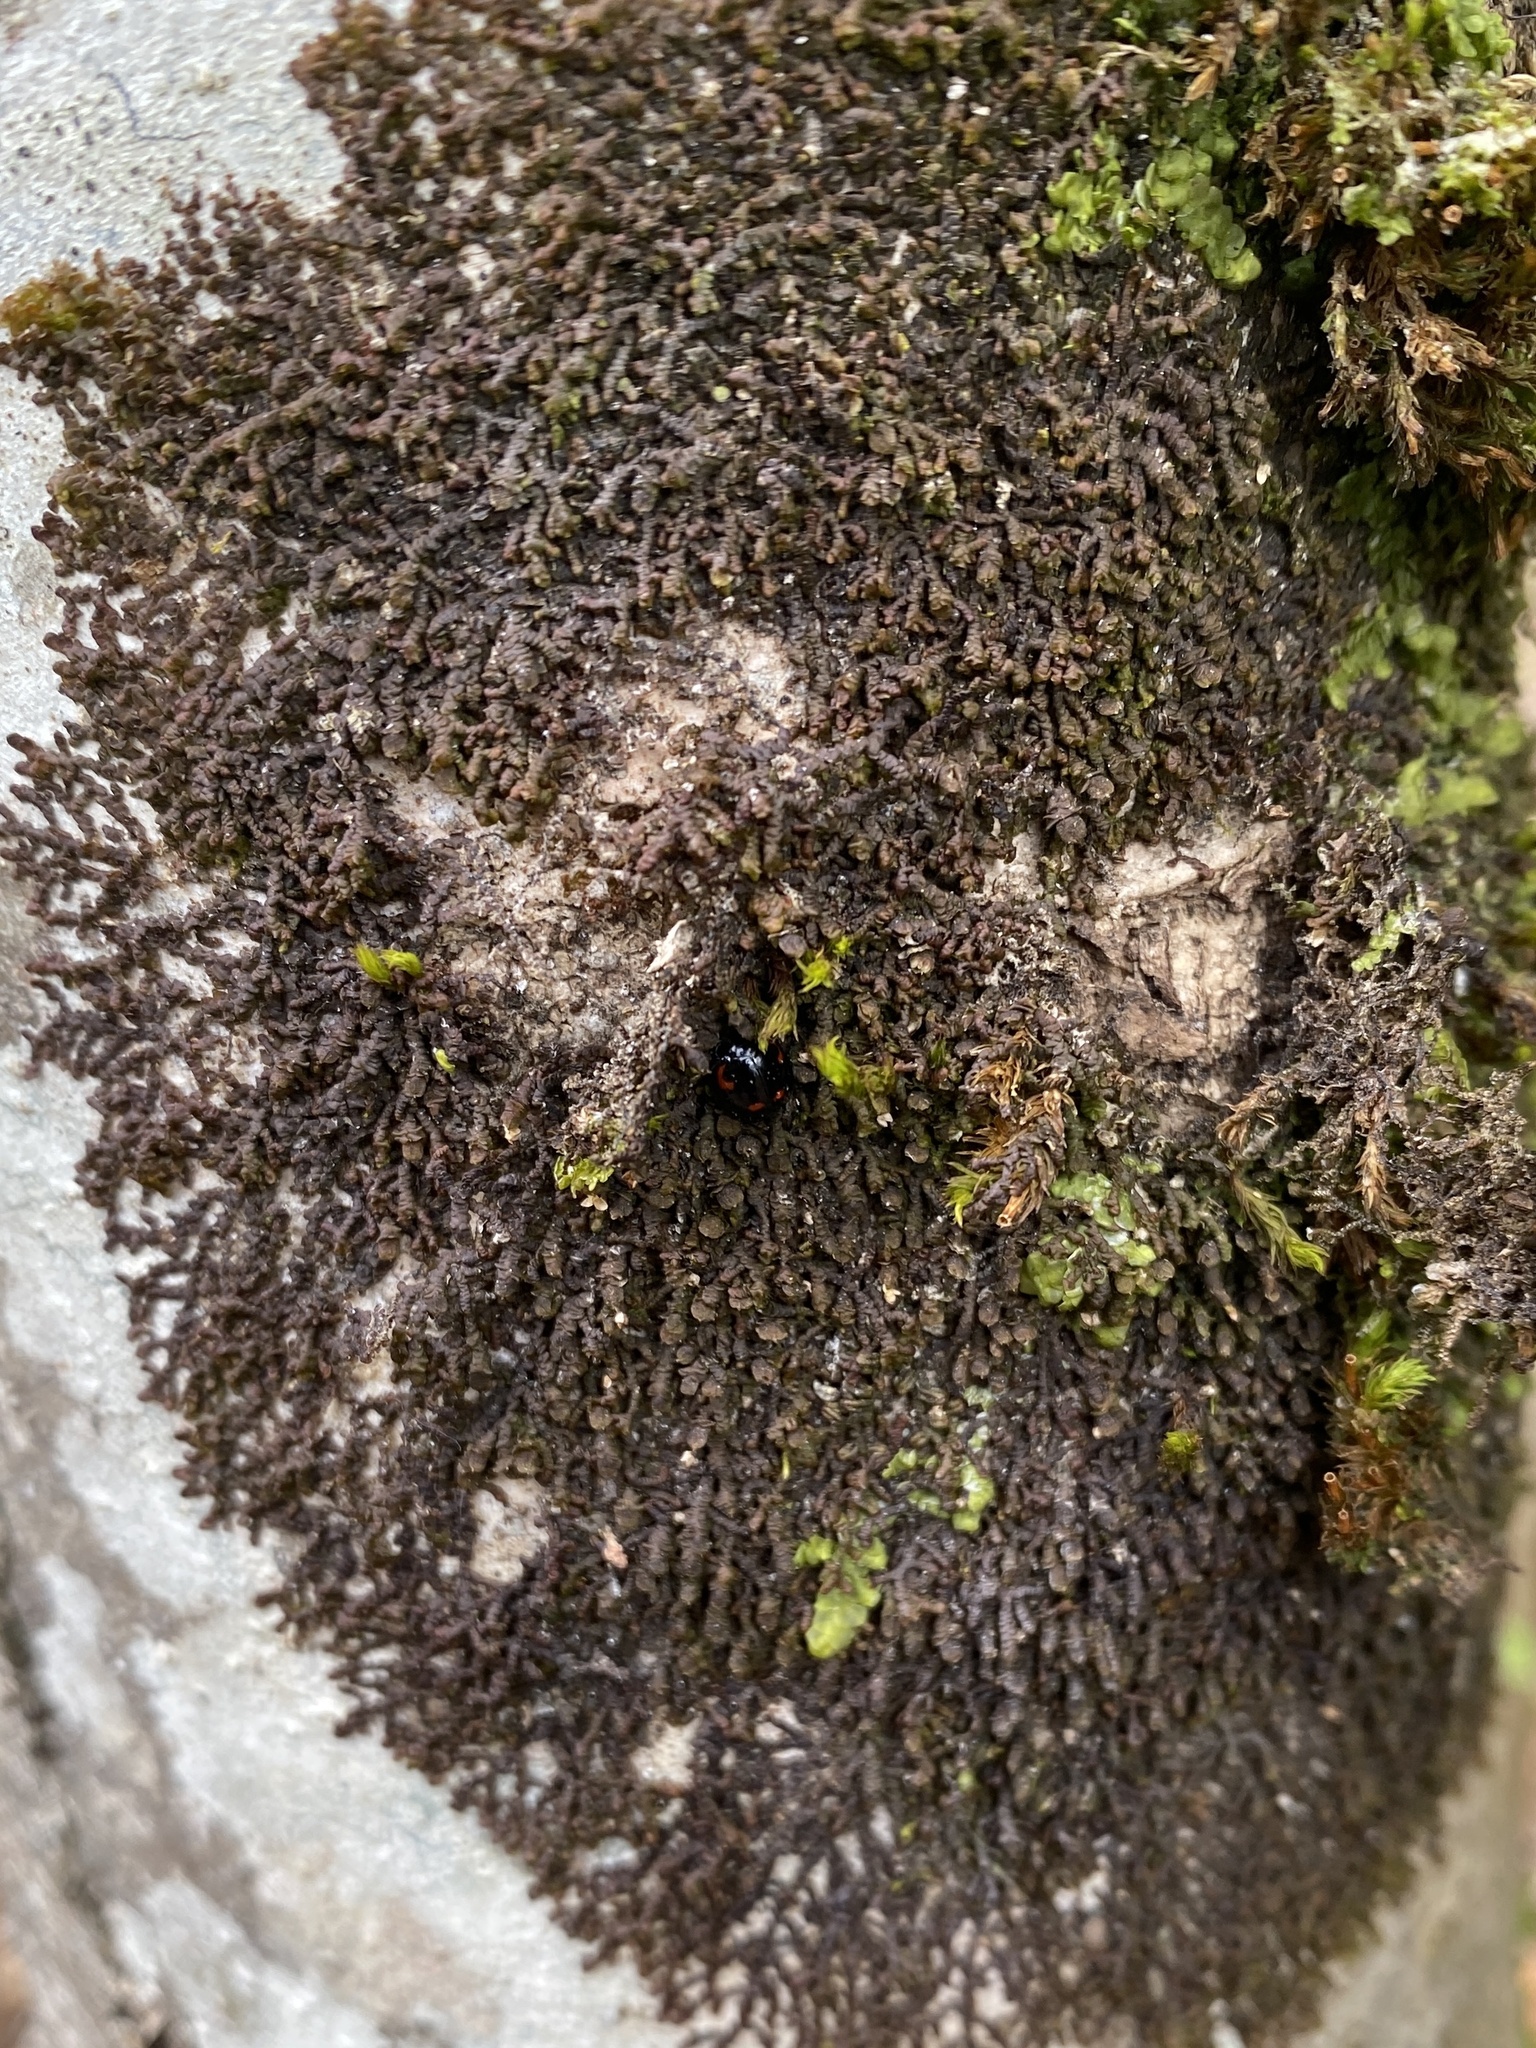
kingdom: Plantae
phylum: Marchantiophyta
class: Jungermanniopsida
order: Porellales
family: Frullaniaceae
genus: Frullania
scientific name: Frullania dilatata
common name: Dilated scalewort
